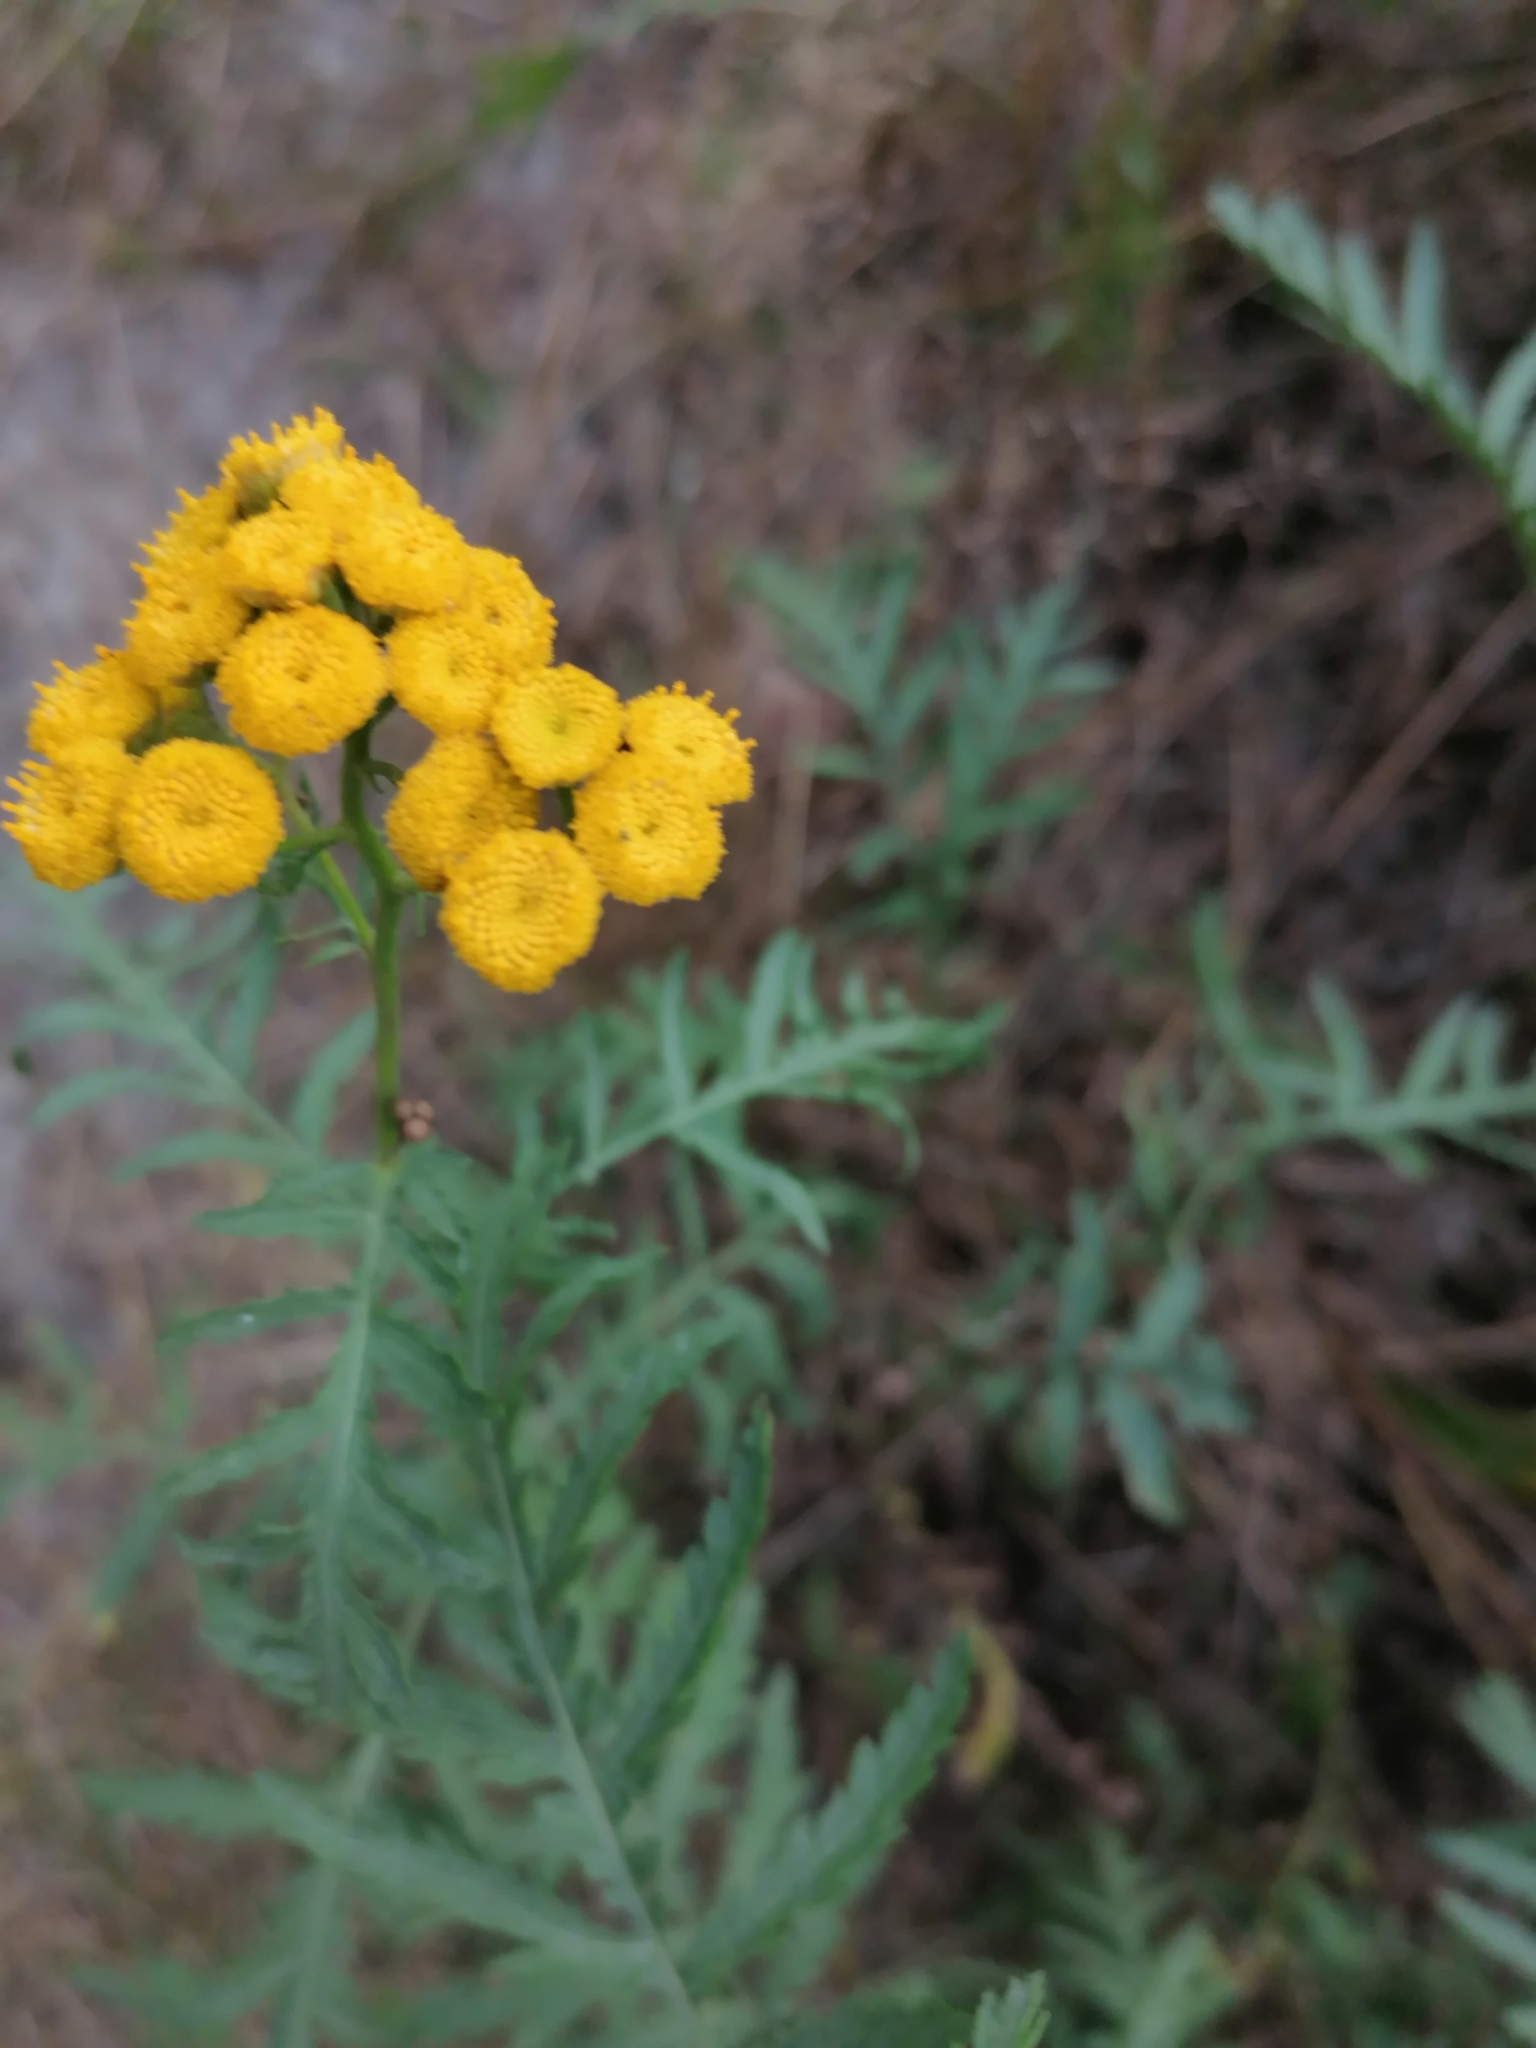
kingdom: Plantae
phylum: Tracheophyta
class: Magnoliopsida
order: Asterales
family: Asteraceae
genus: Tanacetum
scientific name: Tanacetum vulgare
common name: Common tansy
